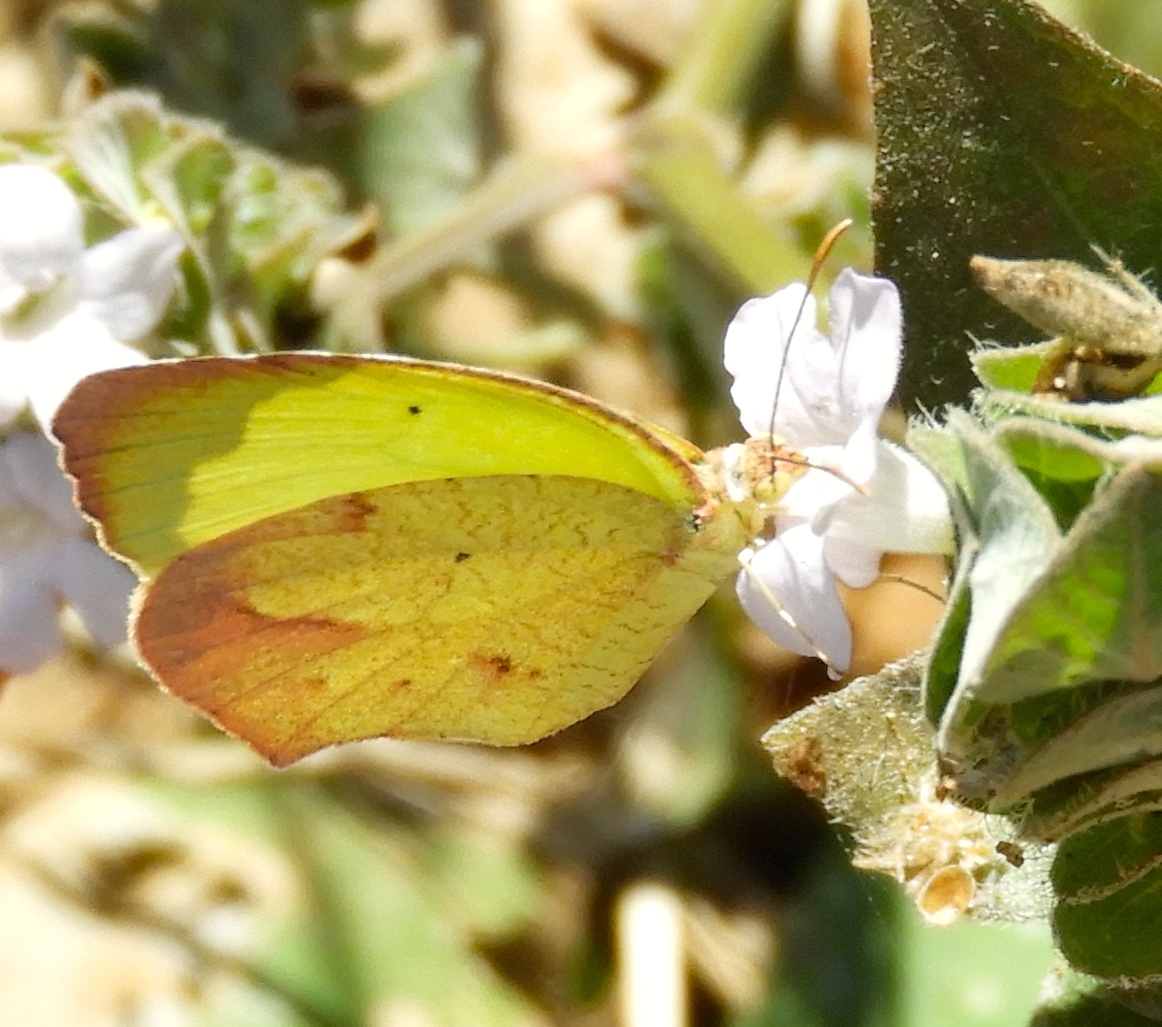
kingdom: Animalia
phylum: Arthropoda
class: Insecta
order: Lepidoptera
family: Pieridae
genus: Abaeis
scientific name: Abaeis salome
